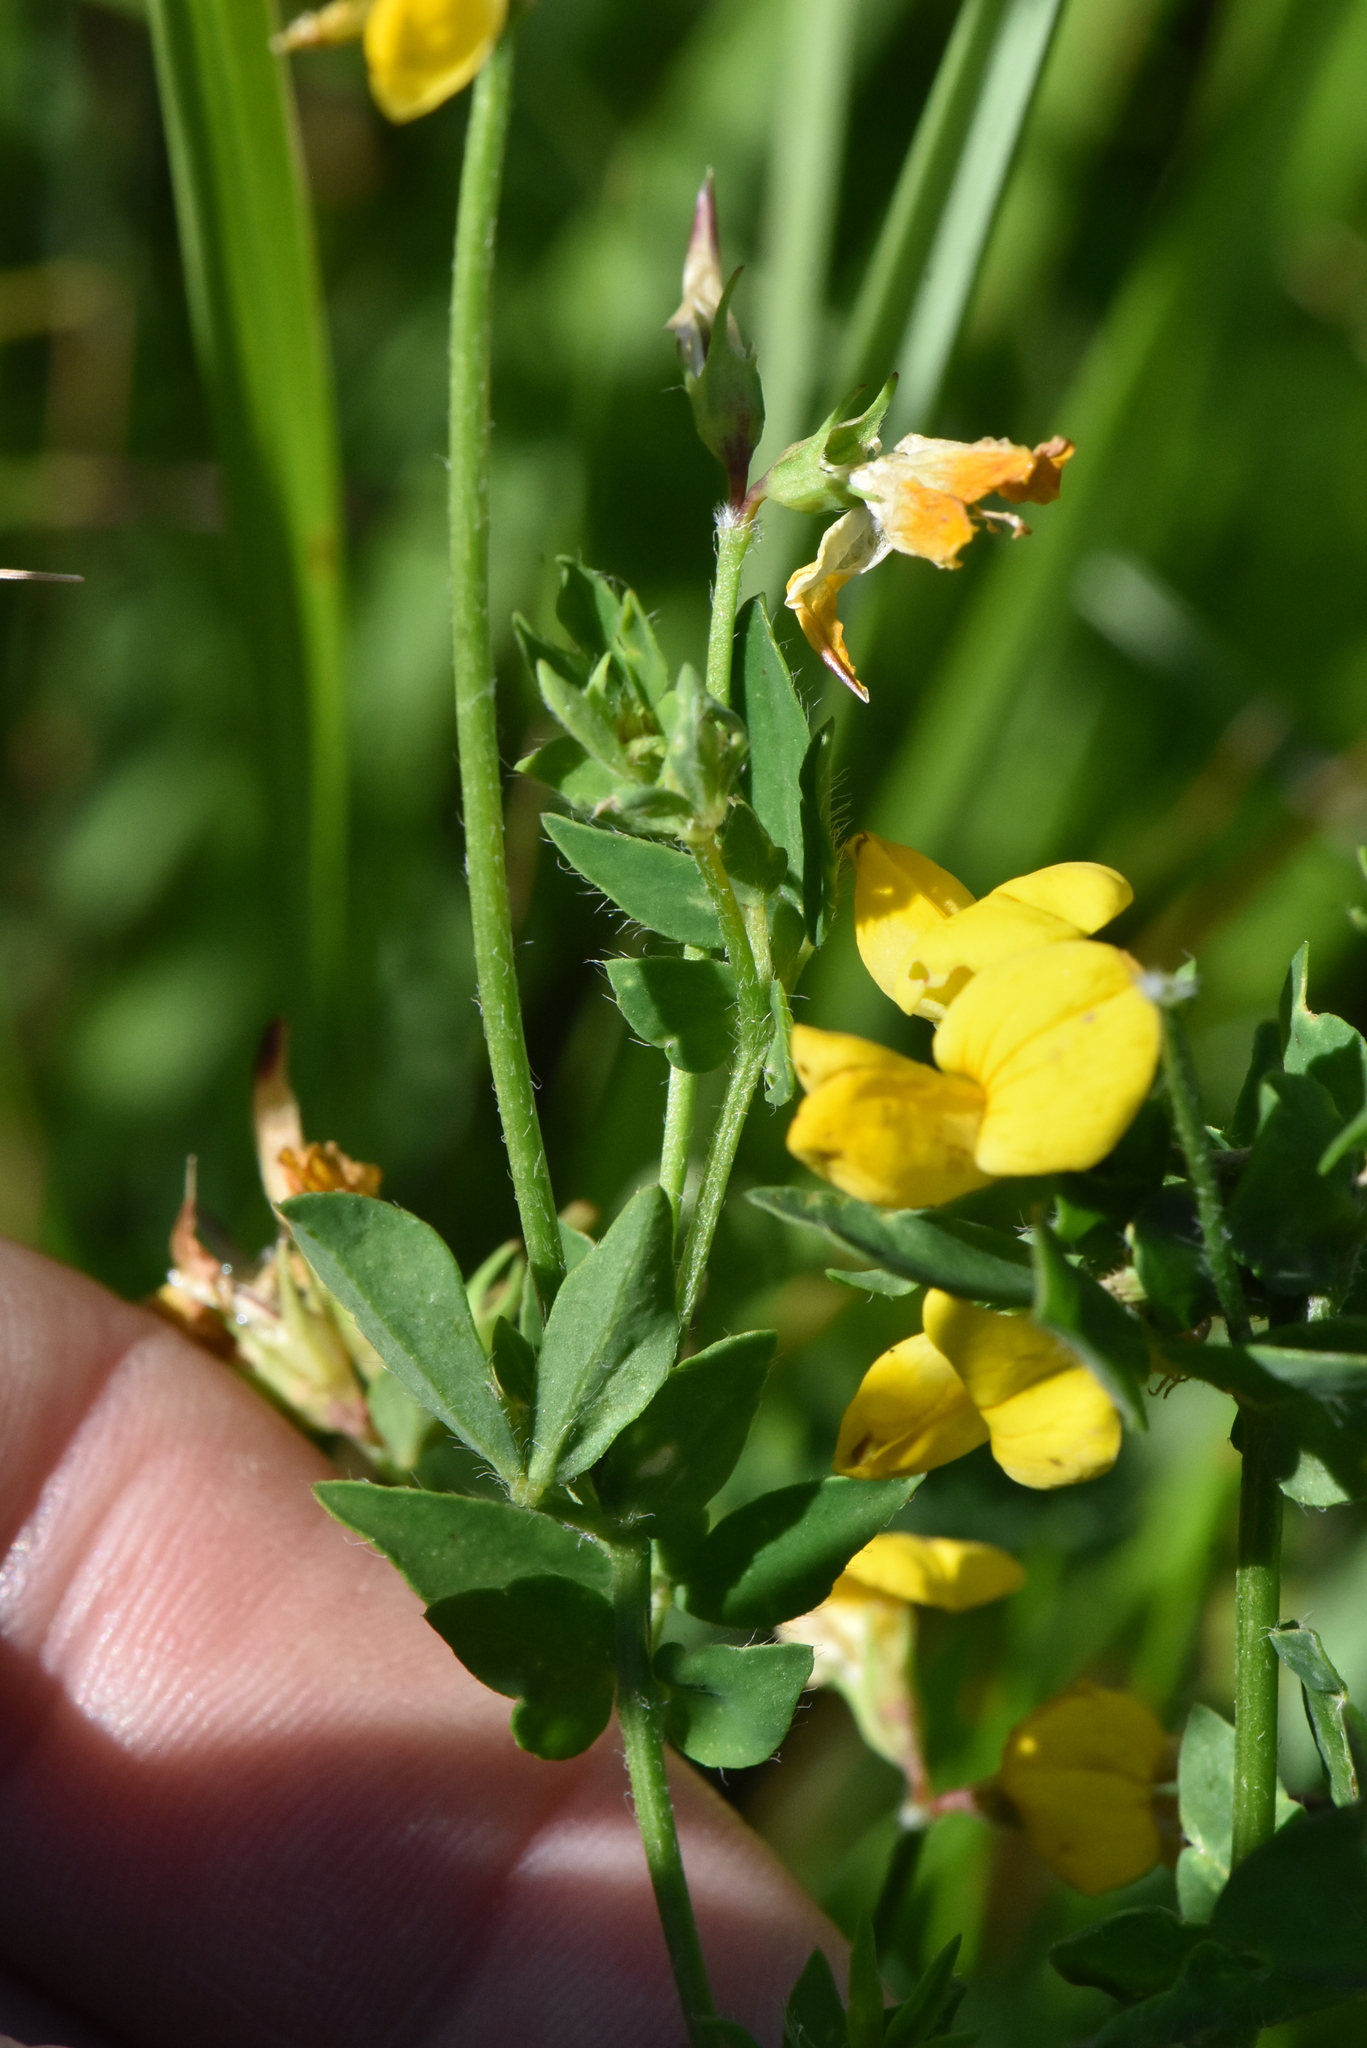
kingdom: Plantae
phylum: Tracheophyta
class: Magnoliopsida
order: Fabales
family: Fabaceae
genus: Lotus
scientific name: Lotus corniculatus
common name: Common bird's-foot-trefoil
